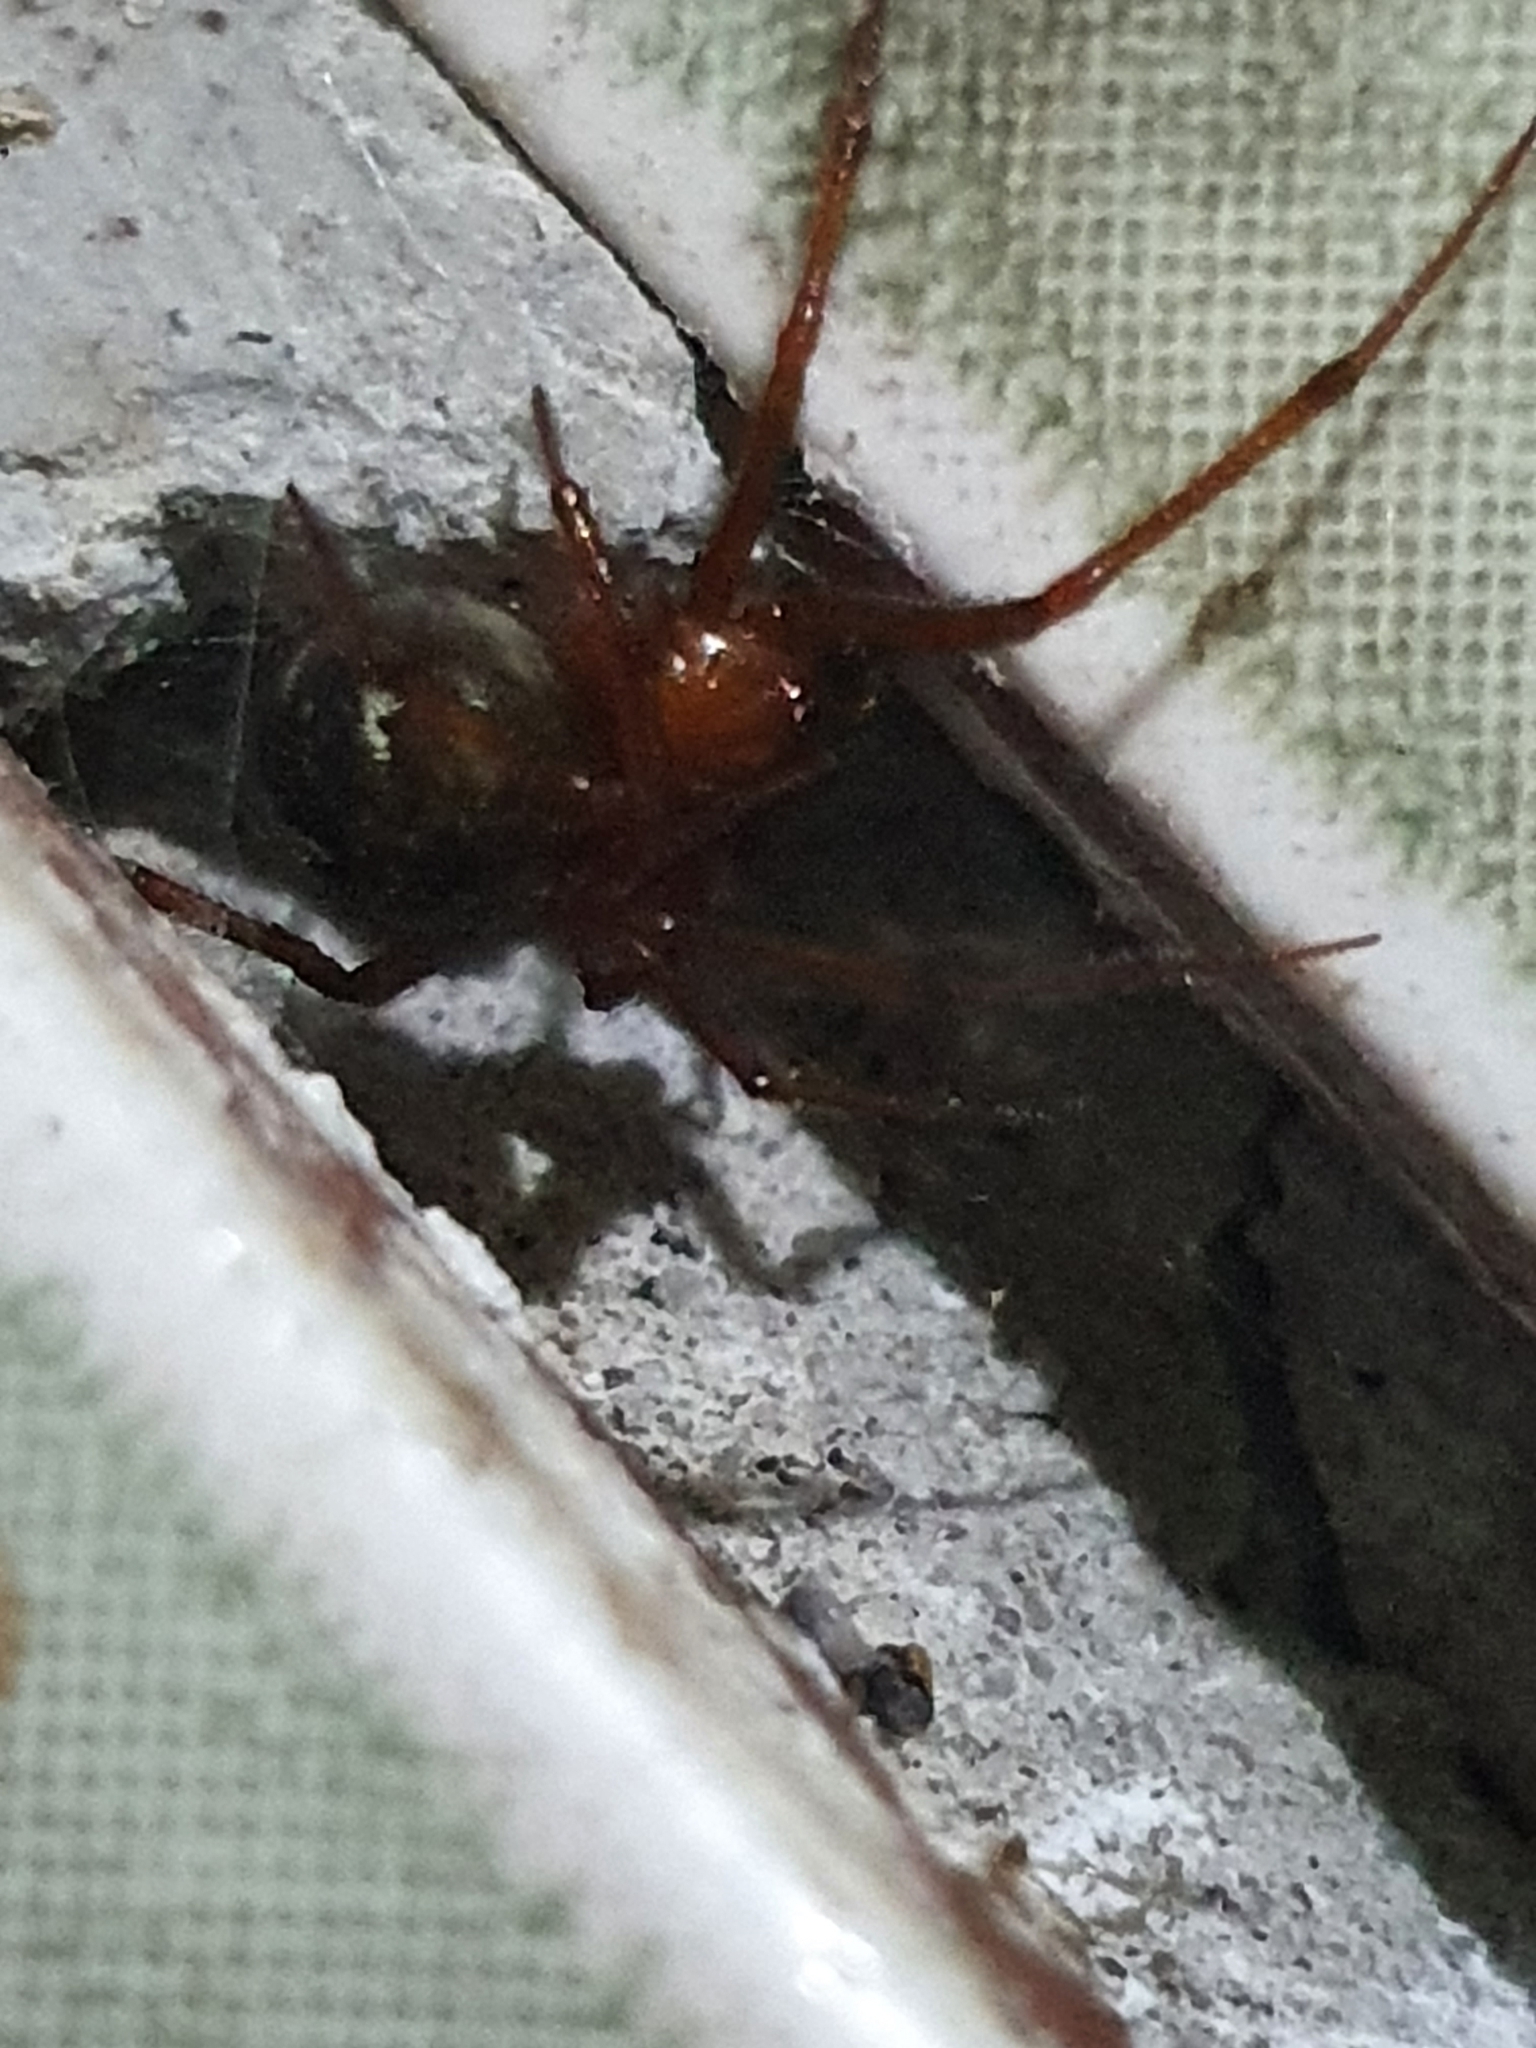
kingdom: Animalia
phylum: Arthropoda
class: Arachnida
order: Araneae
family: Theridiidae
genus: Nesticodes
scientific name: Nesticodes rufipes
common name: Cobweb spiders
